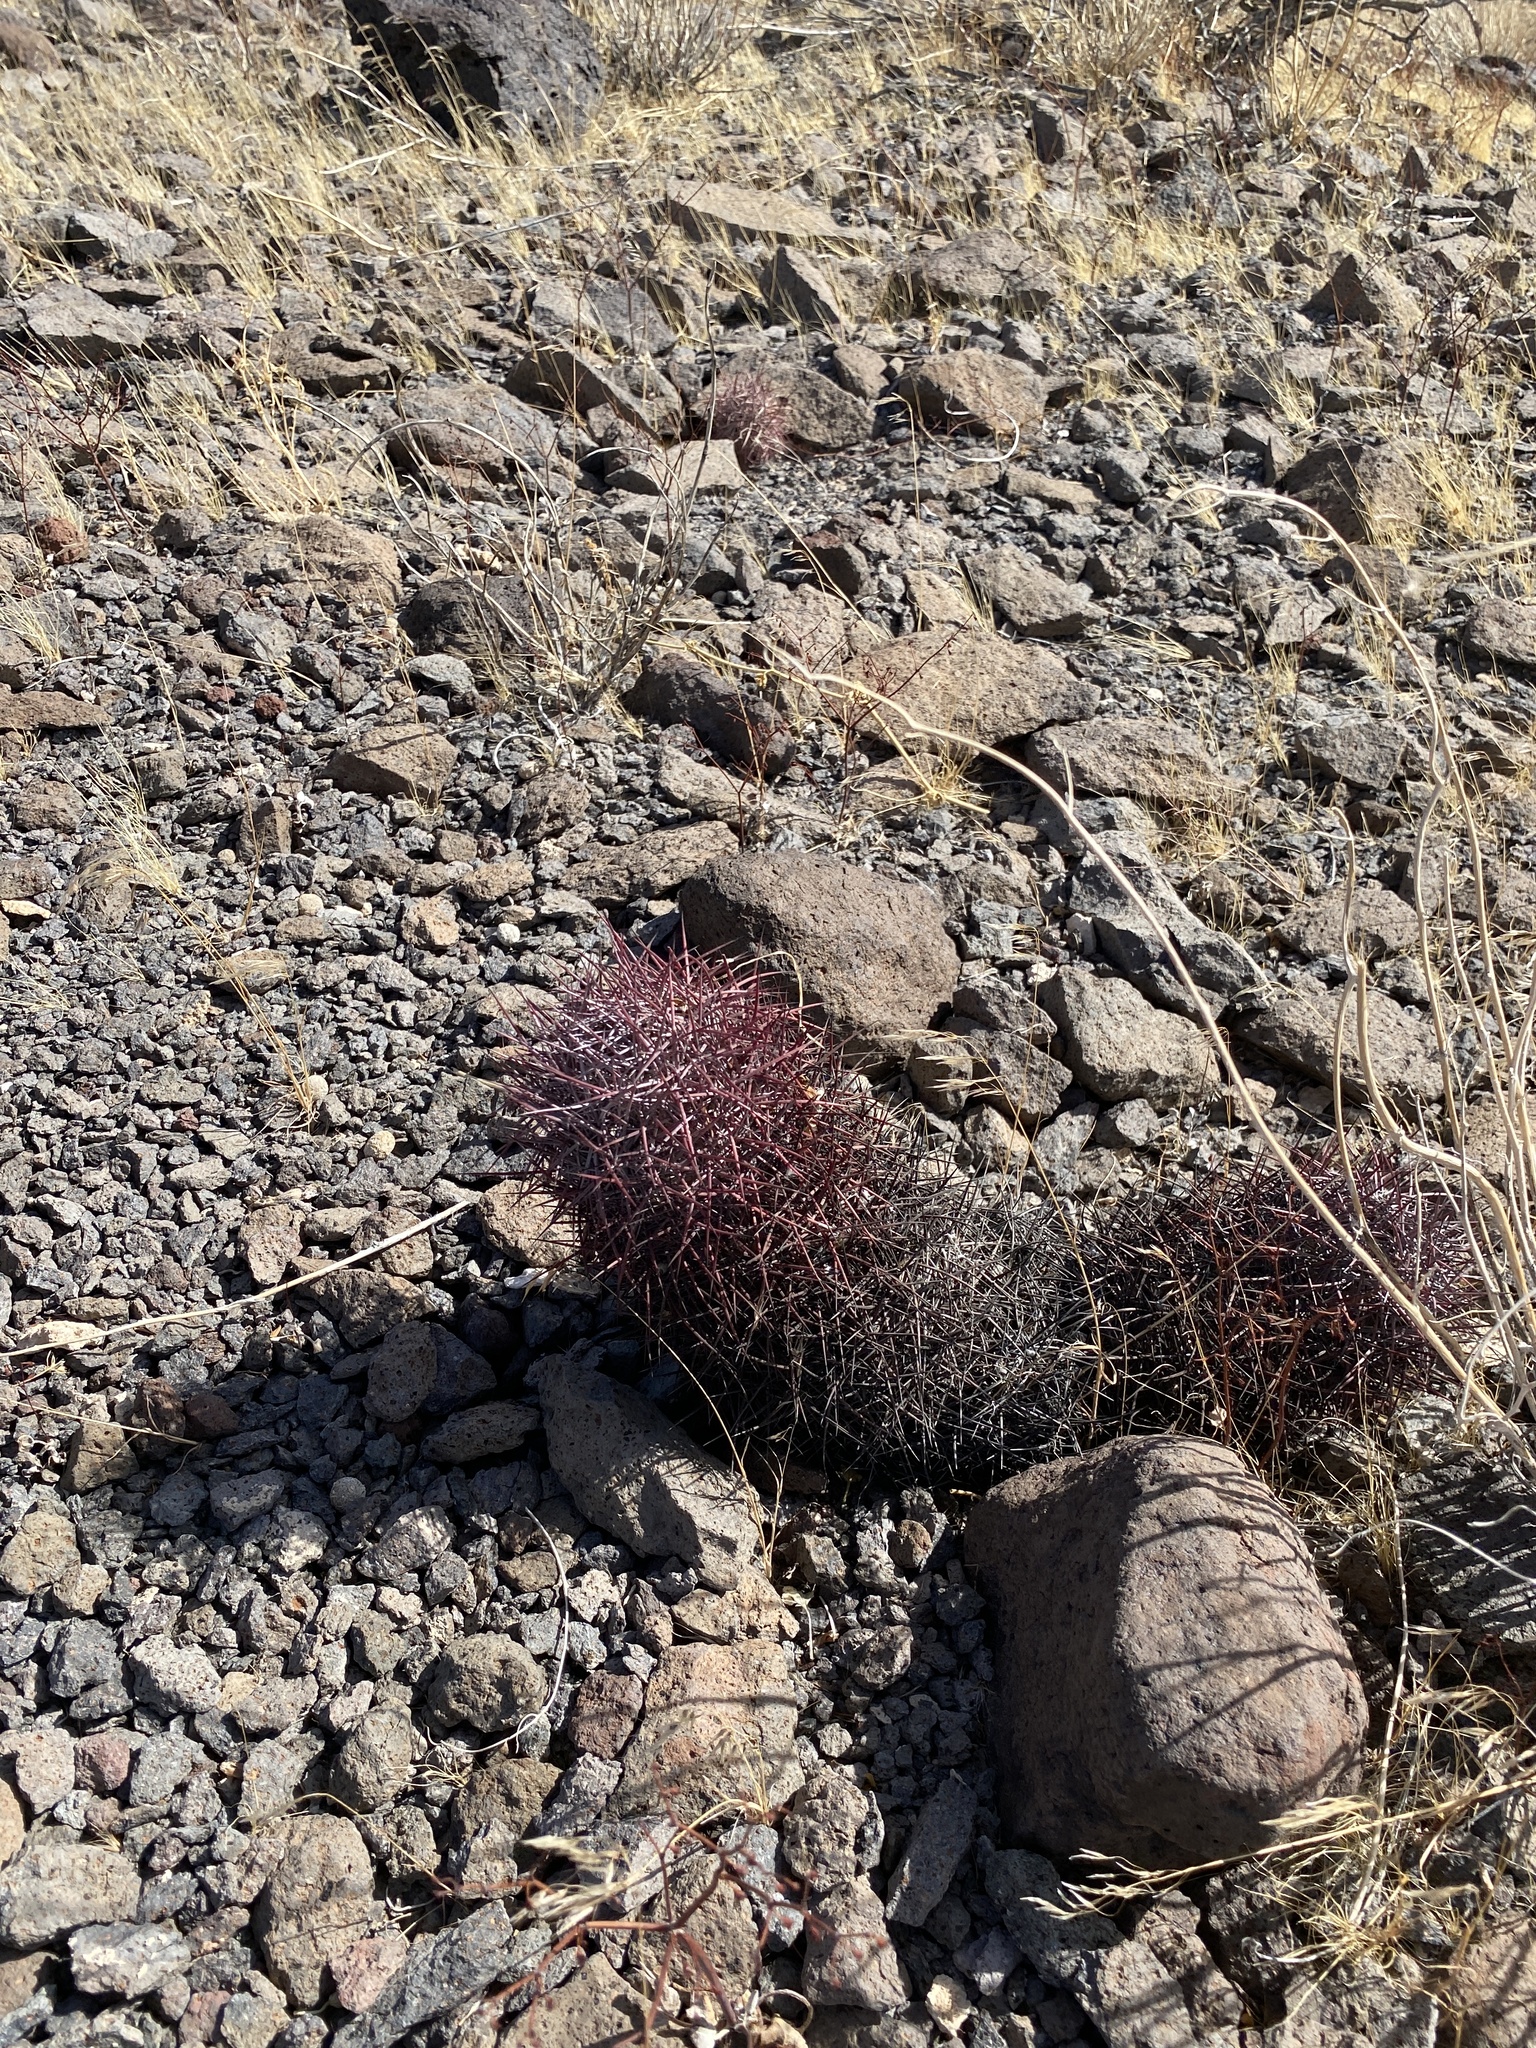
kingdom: Plantae
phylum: Tracheophyta
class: Magnoliopsida
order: Caryophyllales
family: Cactaceae
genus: Sclerocactus
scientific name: Sclerocactus johnsonii
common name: Eight-spine fishhook cactus
